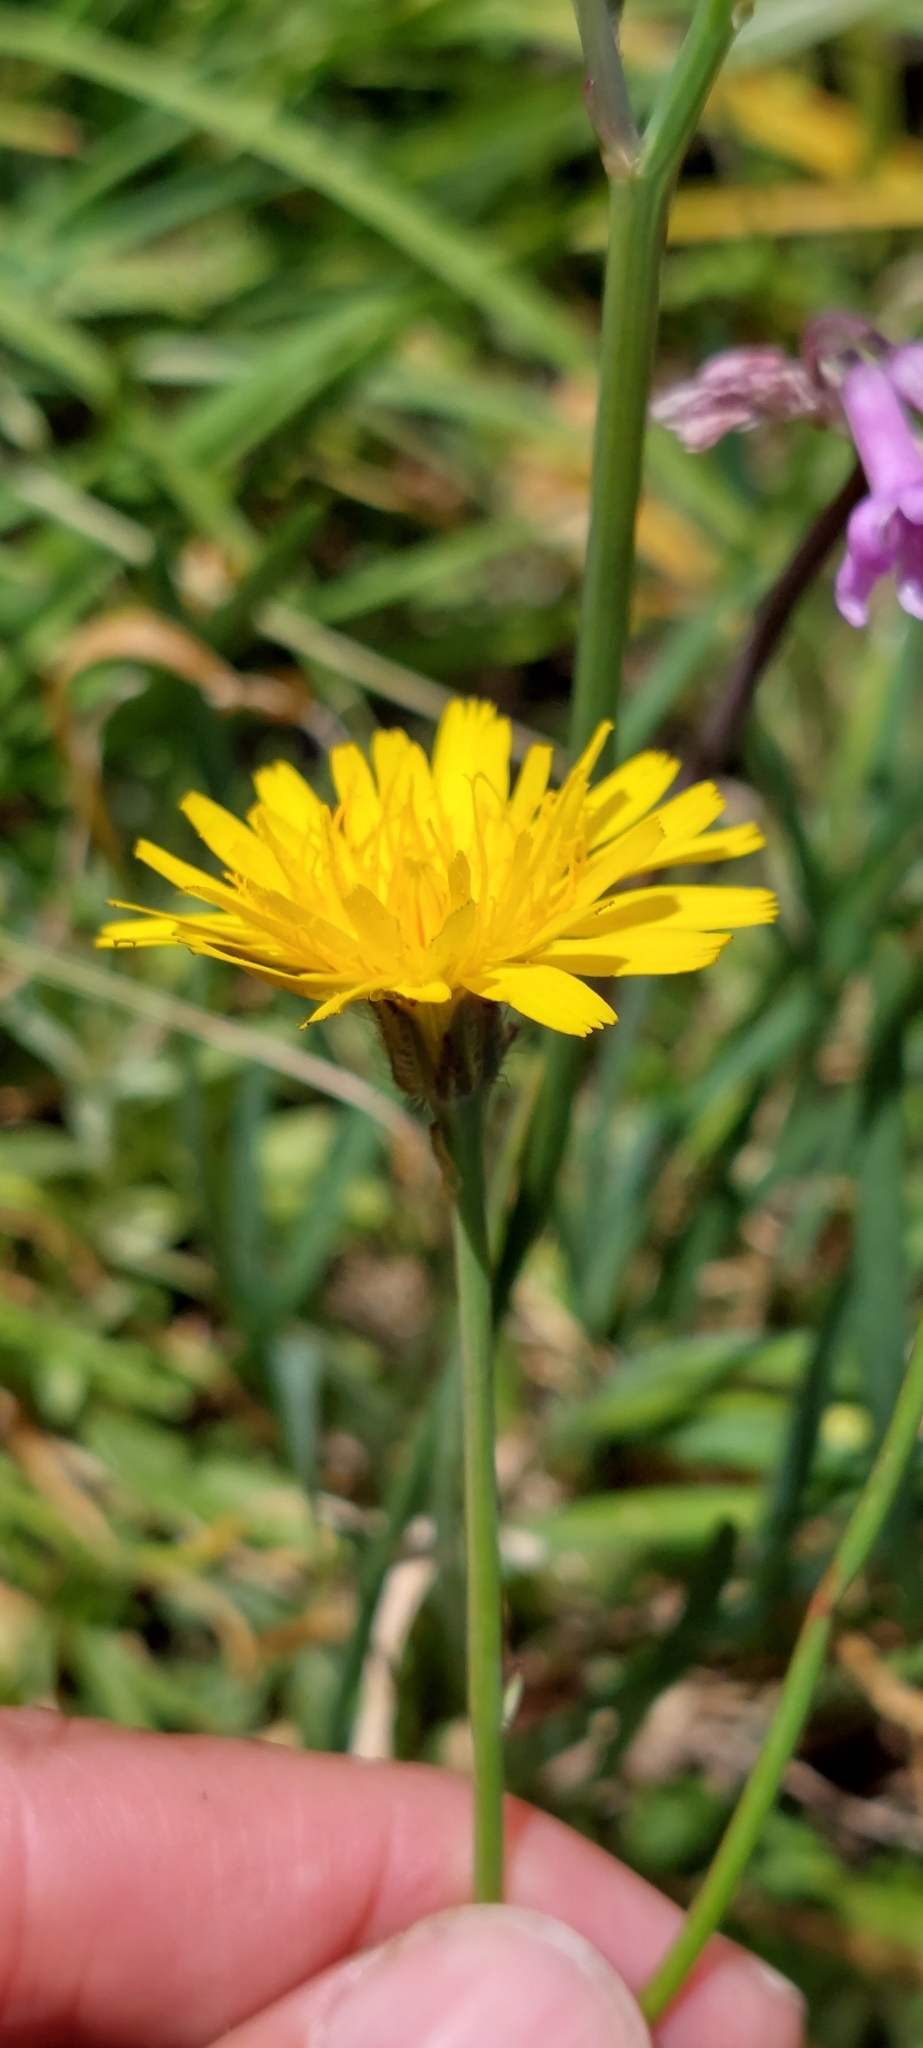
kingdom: Plantae
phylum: Tracheophyta
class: Magnoliopsida
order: Asterales
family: Asteraceae
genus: Hypochaeris
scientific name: Hypochaeris radicata
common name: Flatweed
